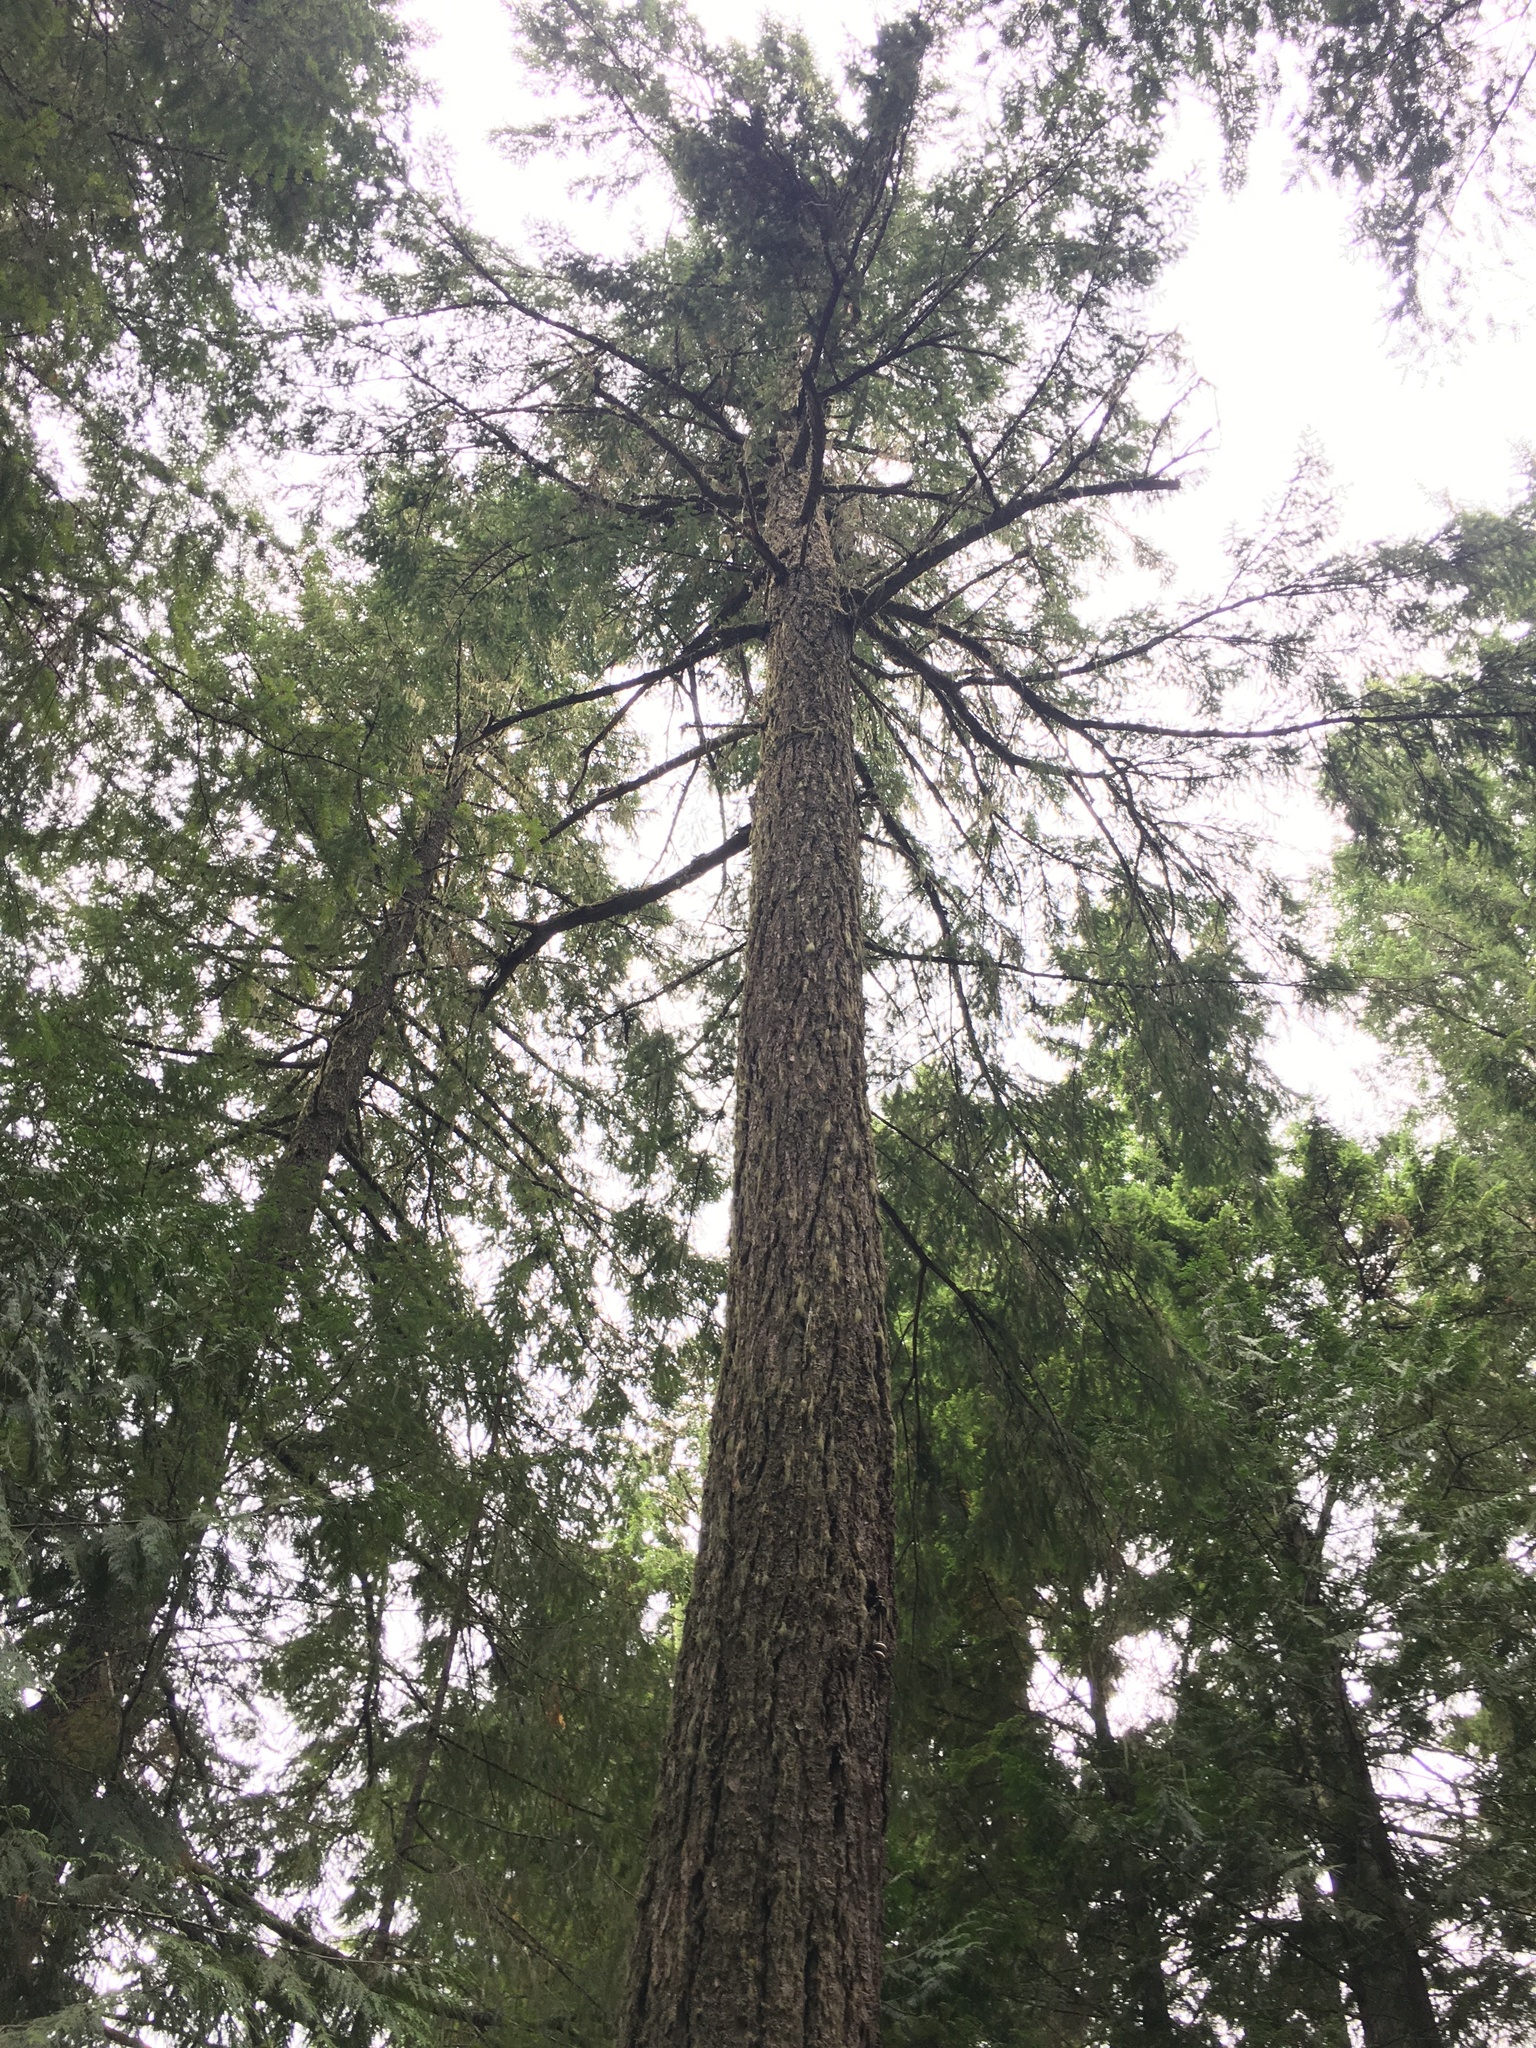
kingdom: Plantae
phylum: Tracheophyta
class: Pinopsida
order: Pinales
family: Pinaceae
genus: Pseudotsuga
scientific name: Pseudotsuga menziesii
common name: Douglas fir
